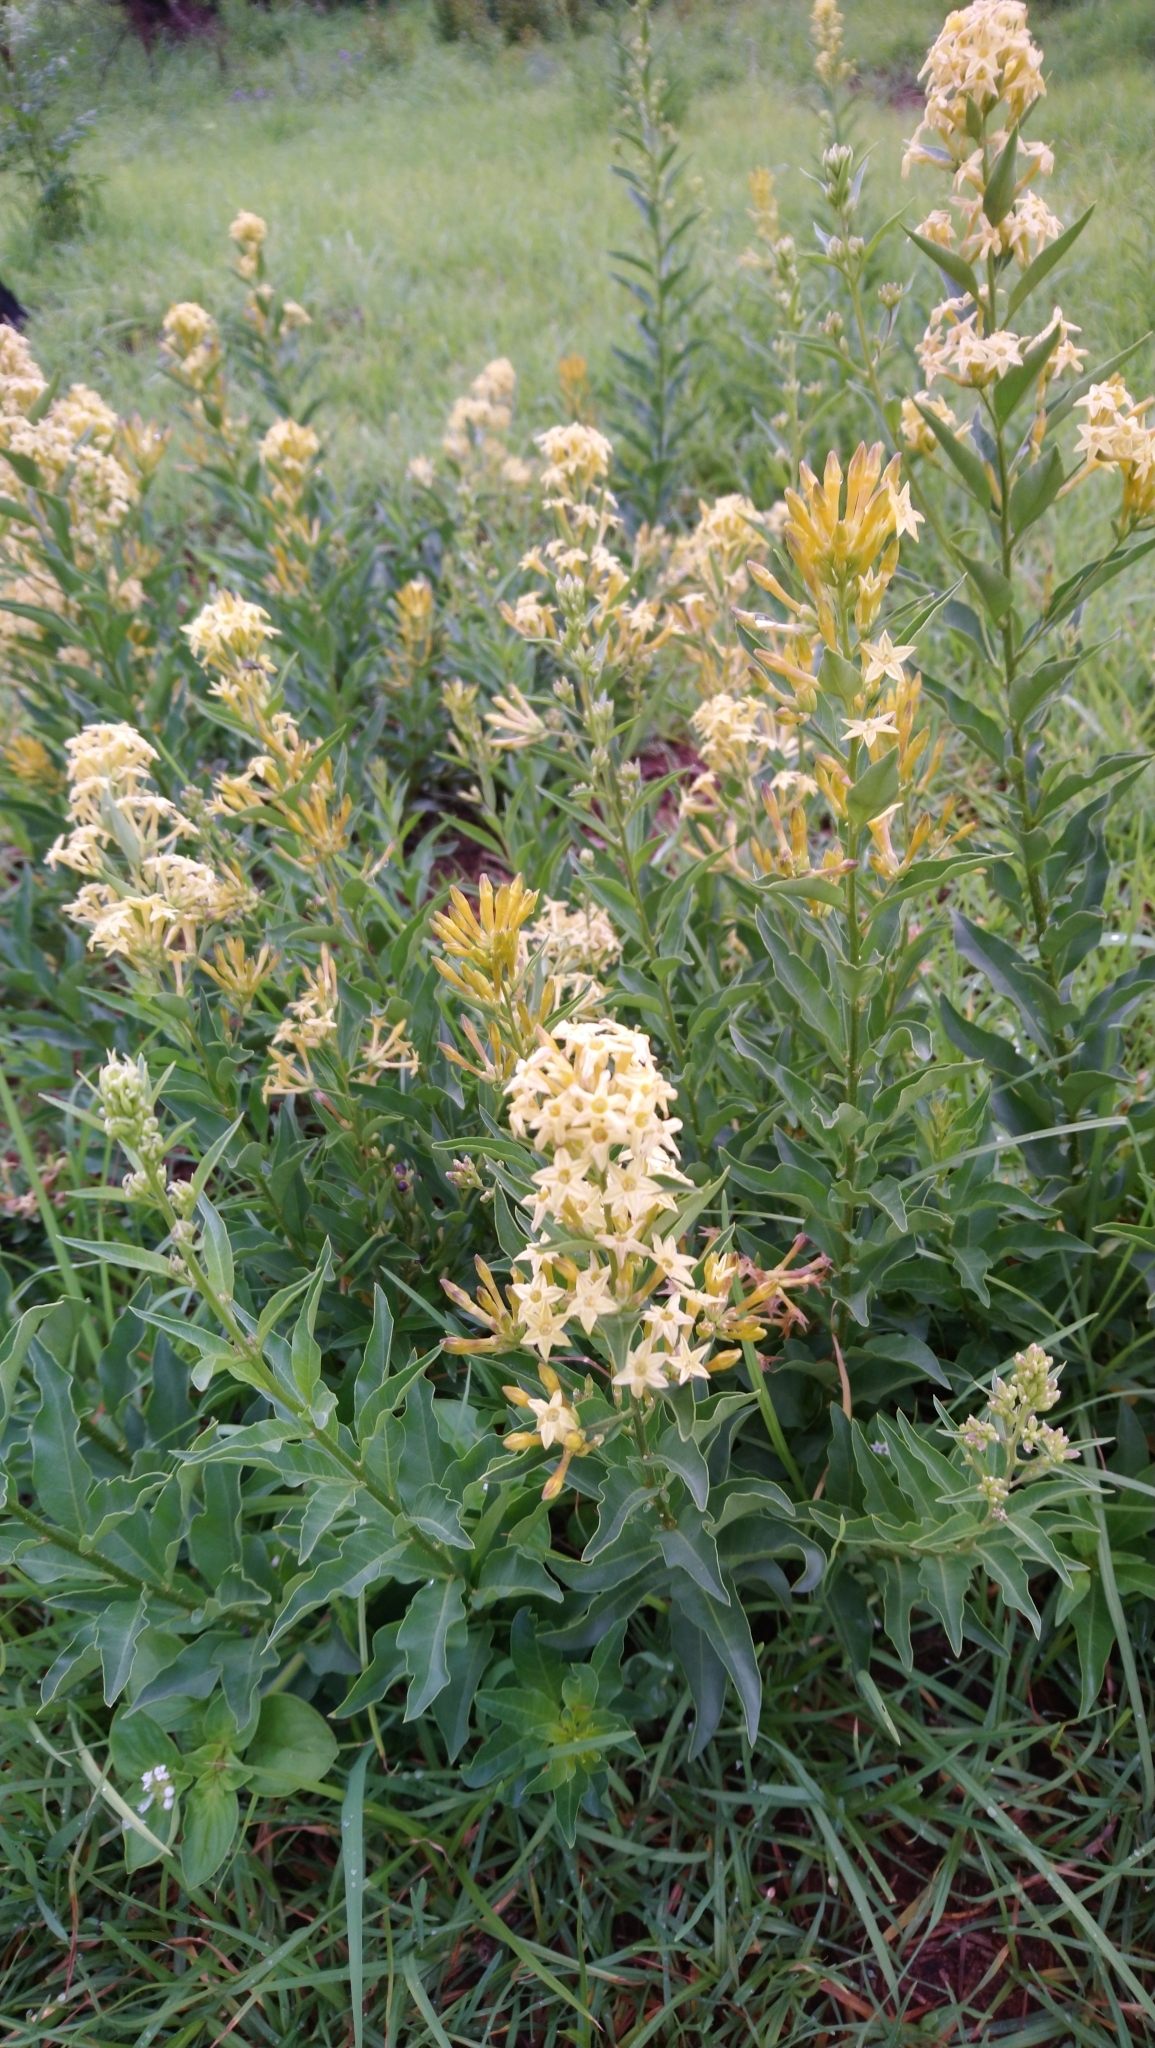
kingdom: Plantae
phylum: Tracheophyta
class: Magnoliopsida
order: Solanales
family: Solanaceae
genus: Cestrum
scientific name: Cestrum parqui
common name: Chilean cestrum
